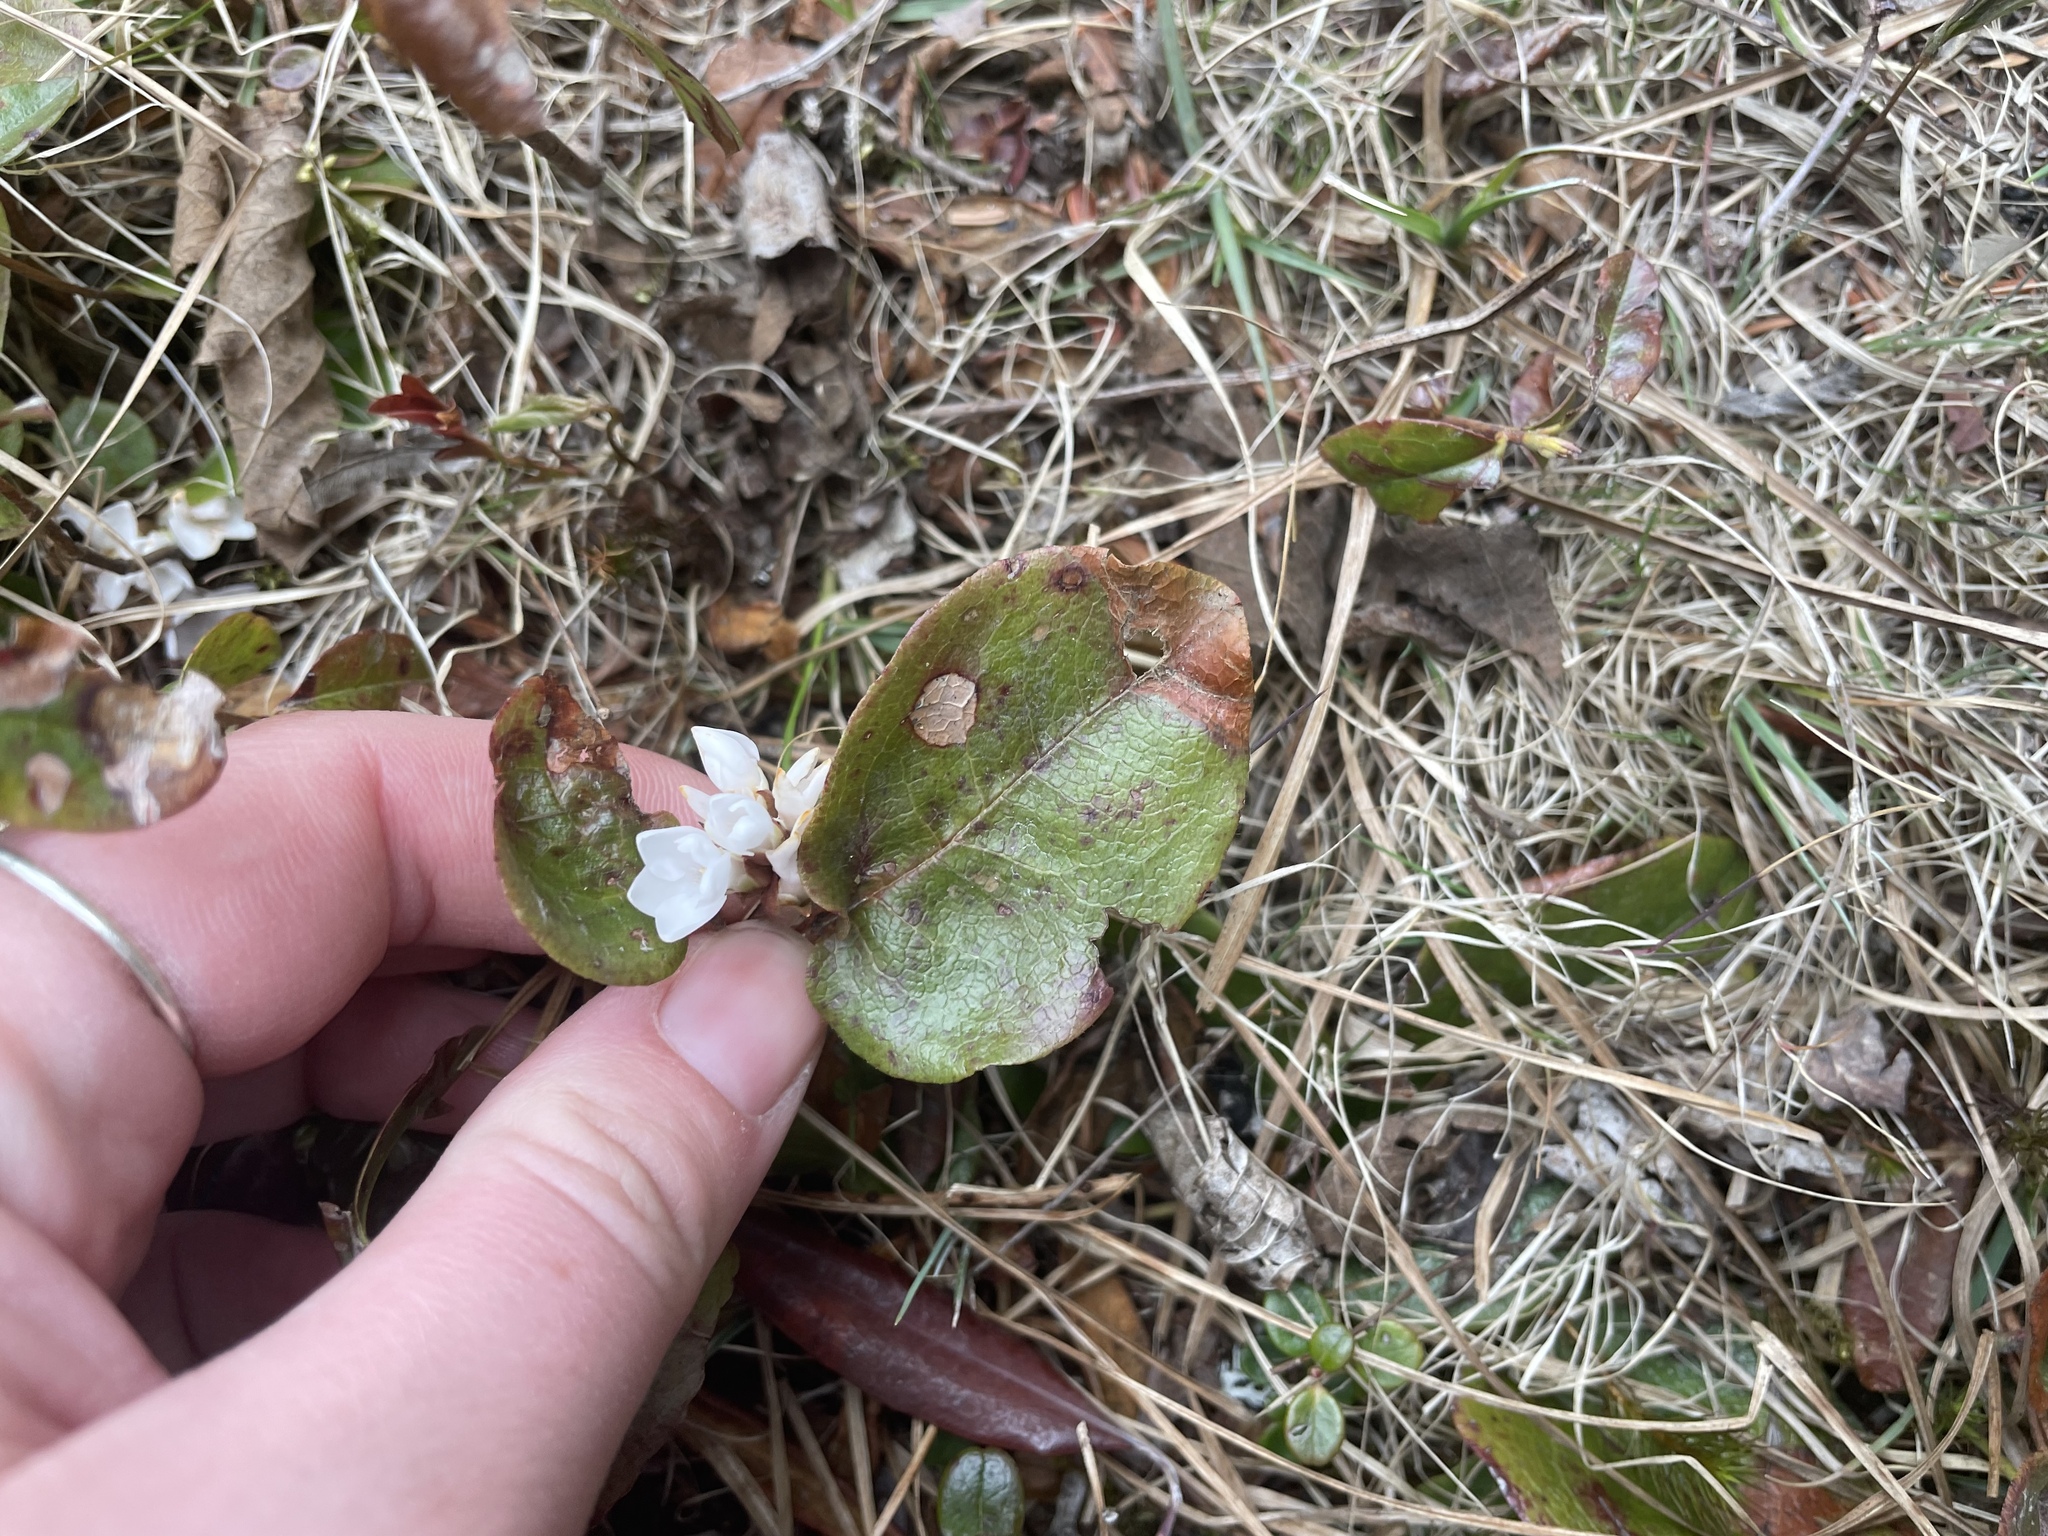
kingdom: Plantae
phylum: Tracheophyta
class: Magnoliopsida
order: Ericales
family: Ericaceae
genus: Epigaea
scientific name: Epigaea repens
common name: Gravelroot
